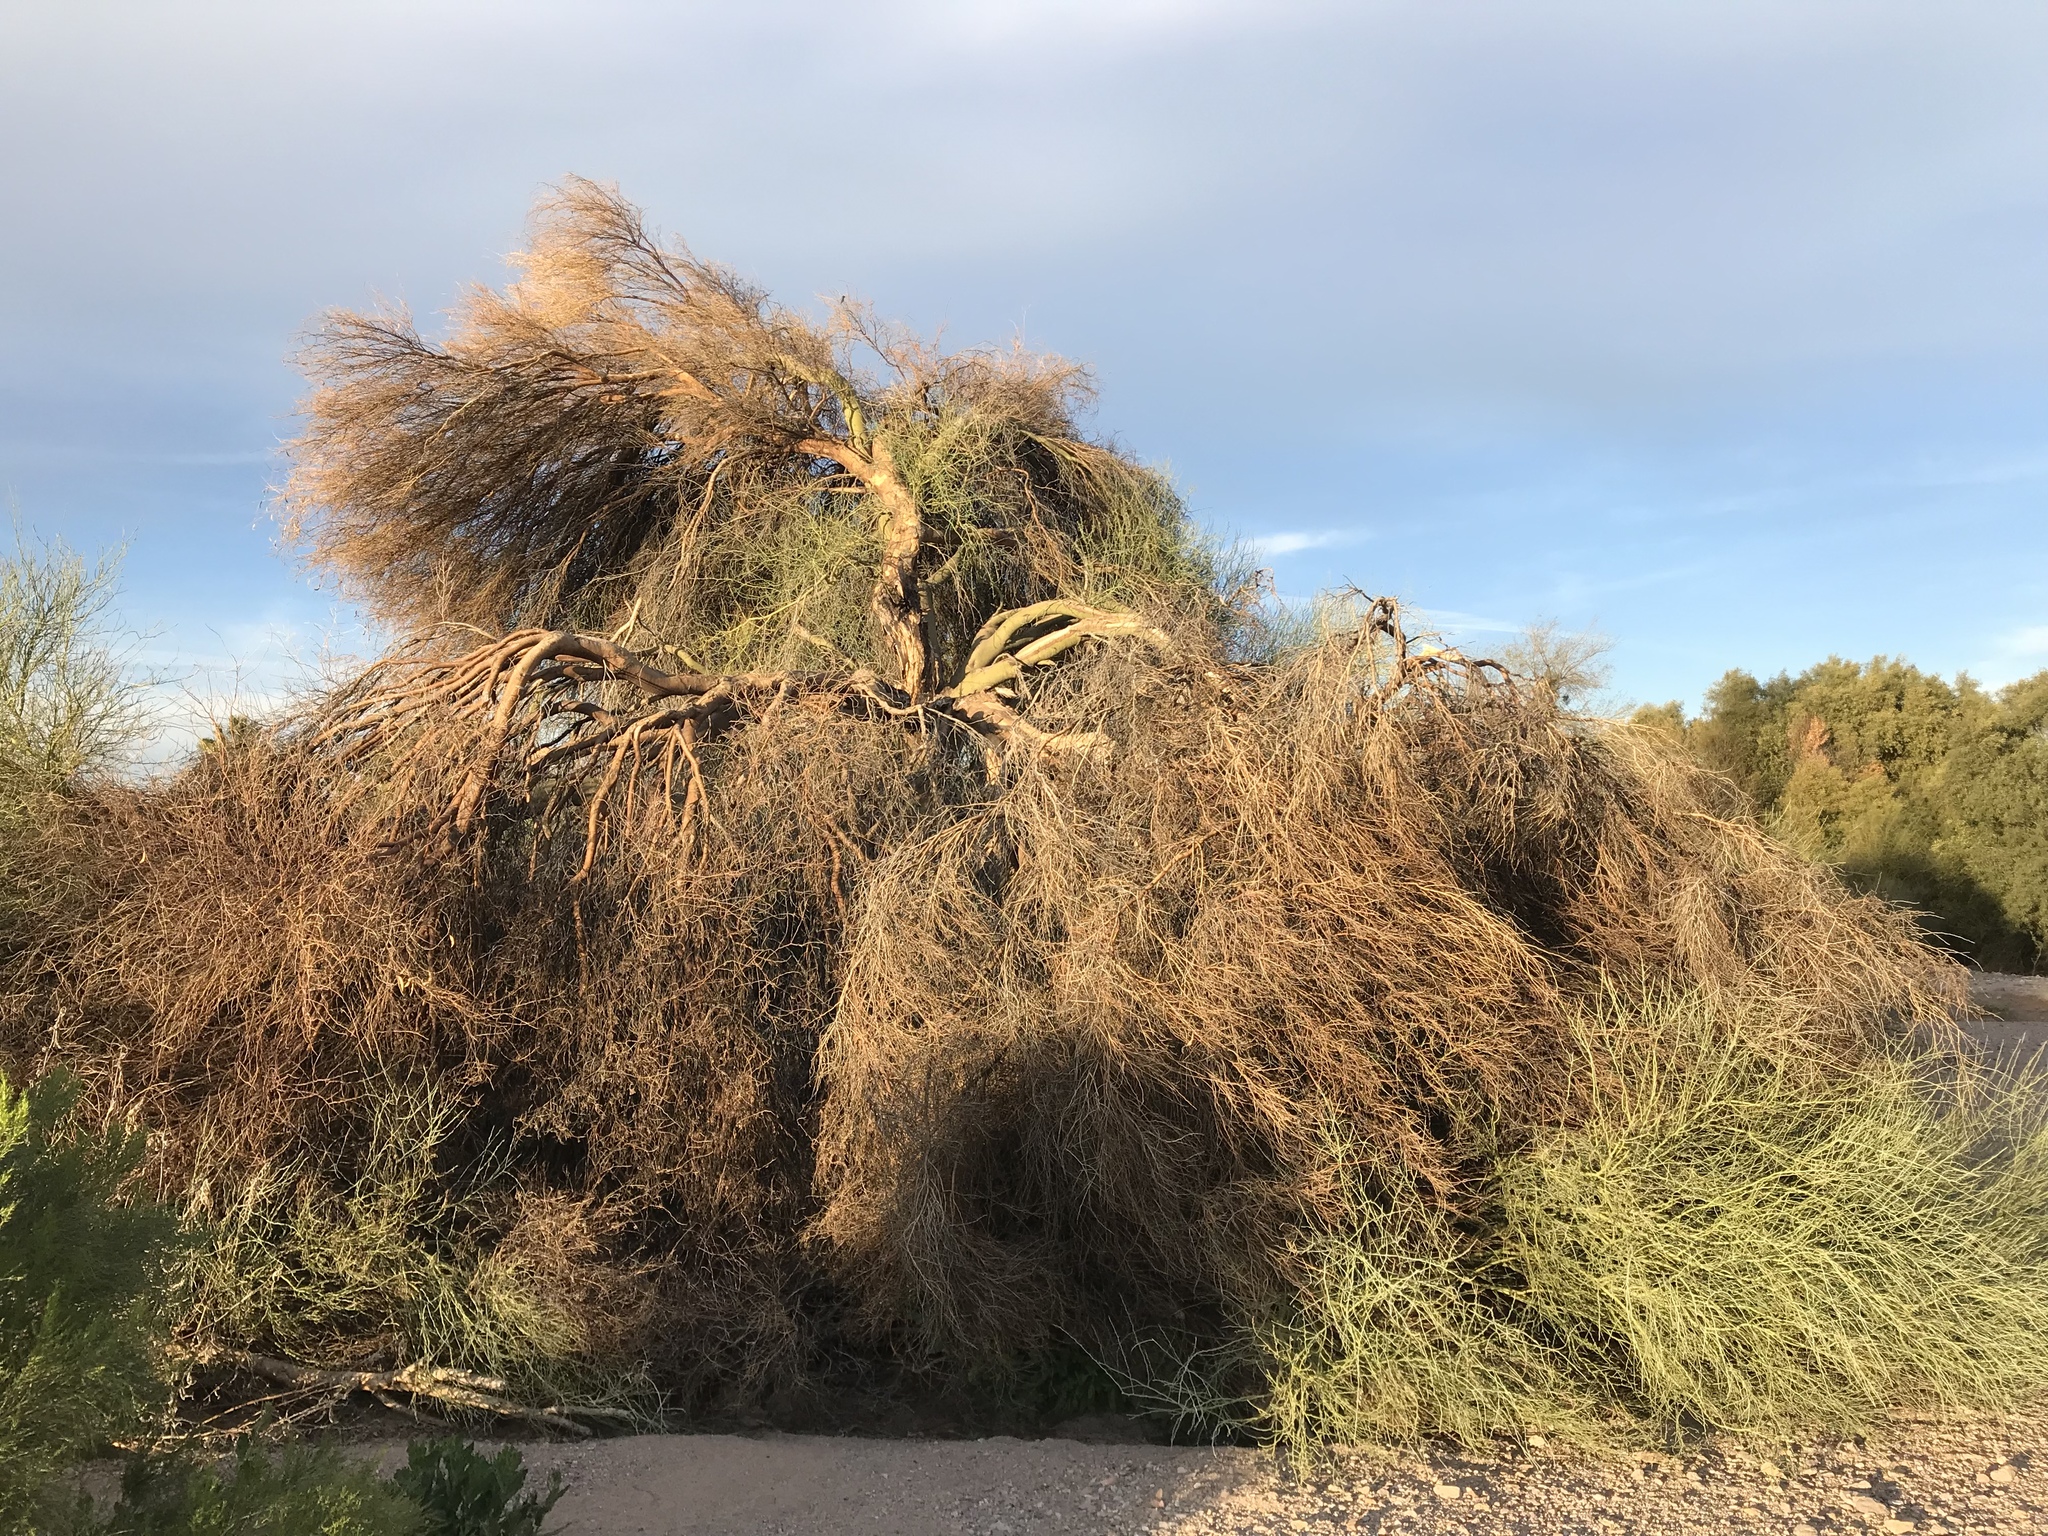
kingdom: Plantae
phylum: Tracheophyta
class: Magnoliopsida
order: Fabales
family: Fabaceae
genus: Parkinsonia
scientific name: Parkinsonia florida
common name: Blue paloverde
